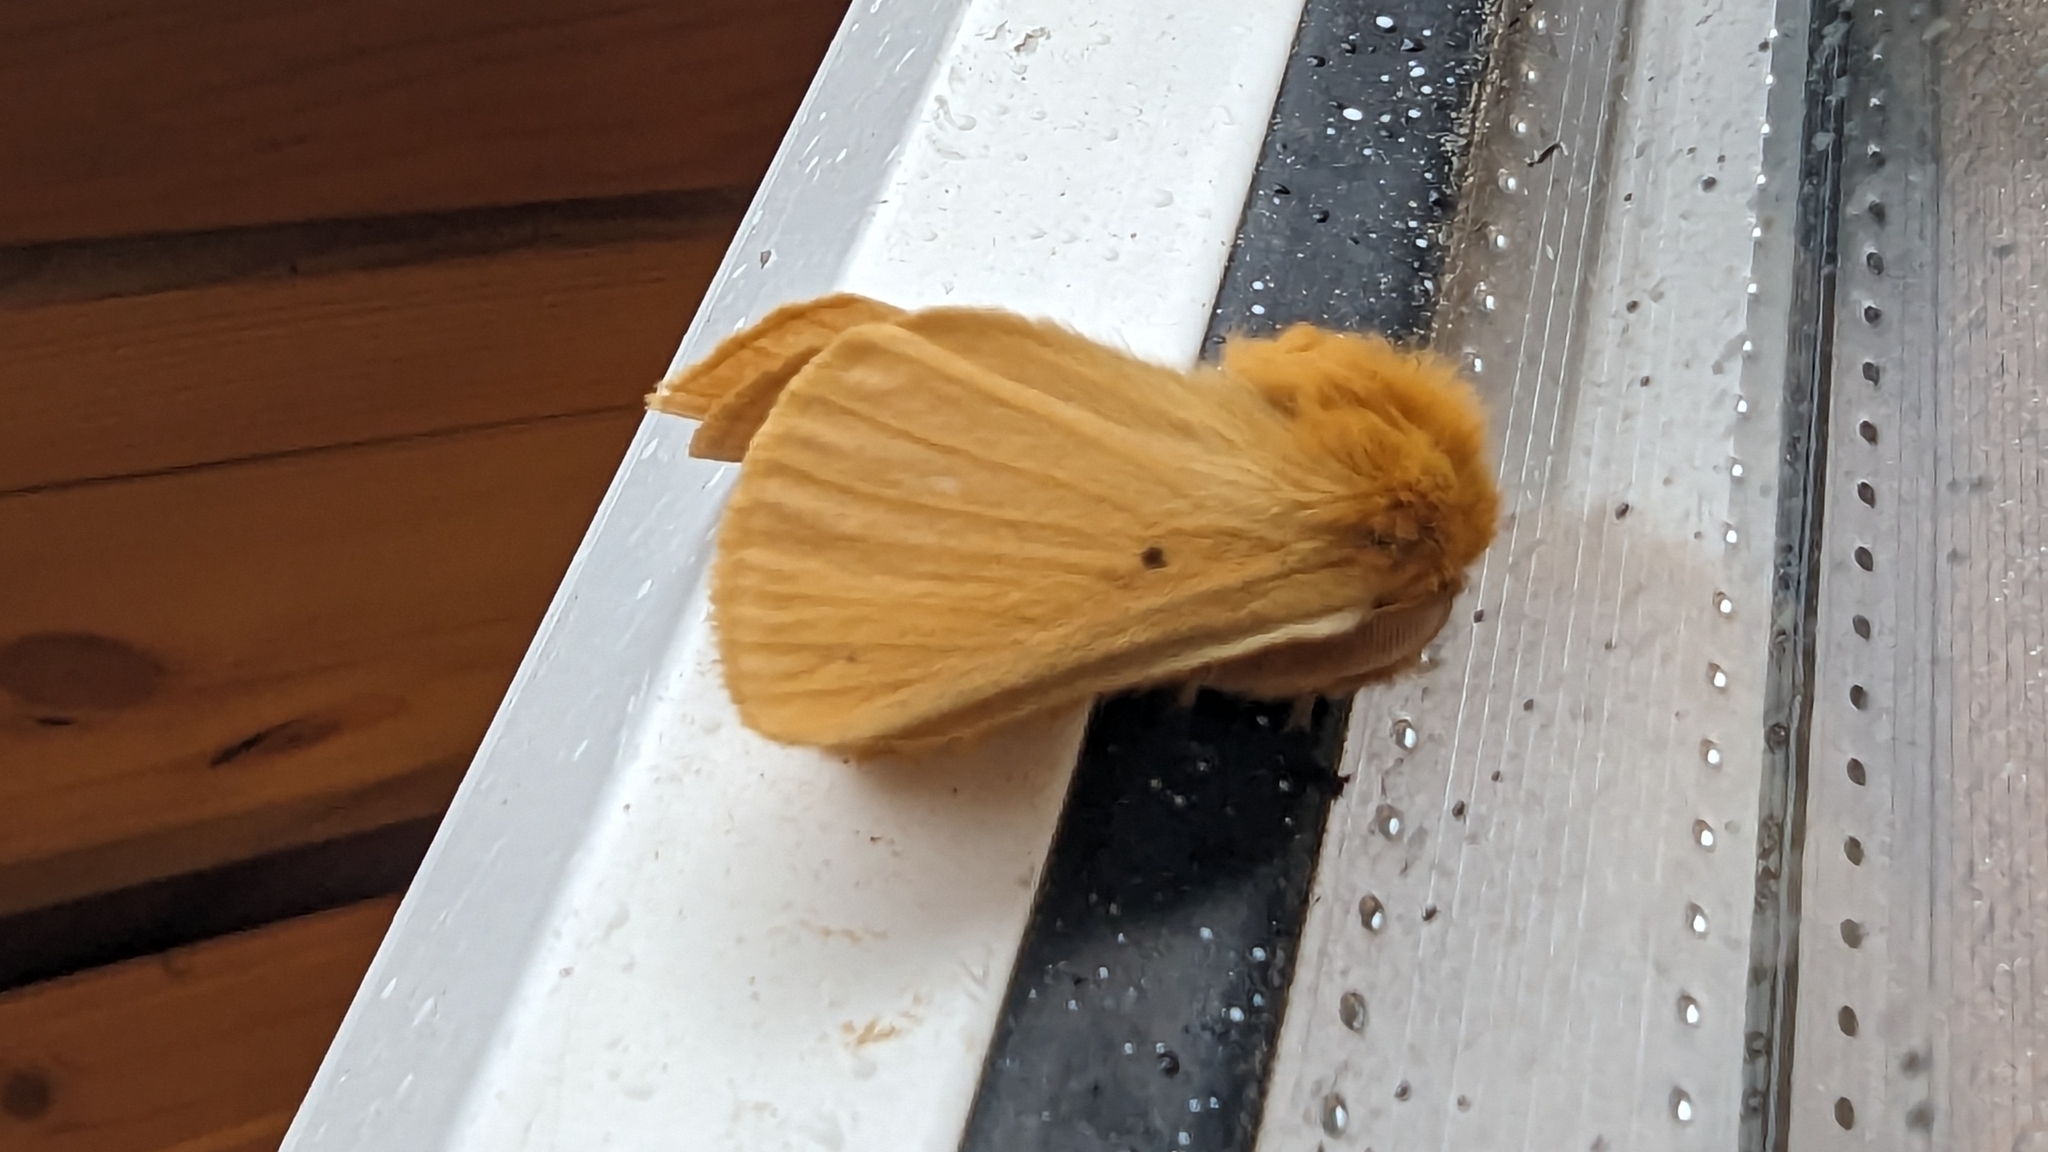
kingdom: Animalia
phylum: Arthropoda
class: Insecta
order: Lepidoptera
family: Brahmaeidae
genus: Lemonia
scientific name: Lemonia taraxaci
